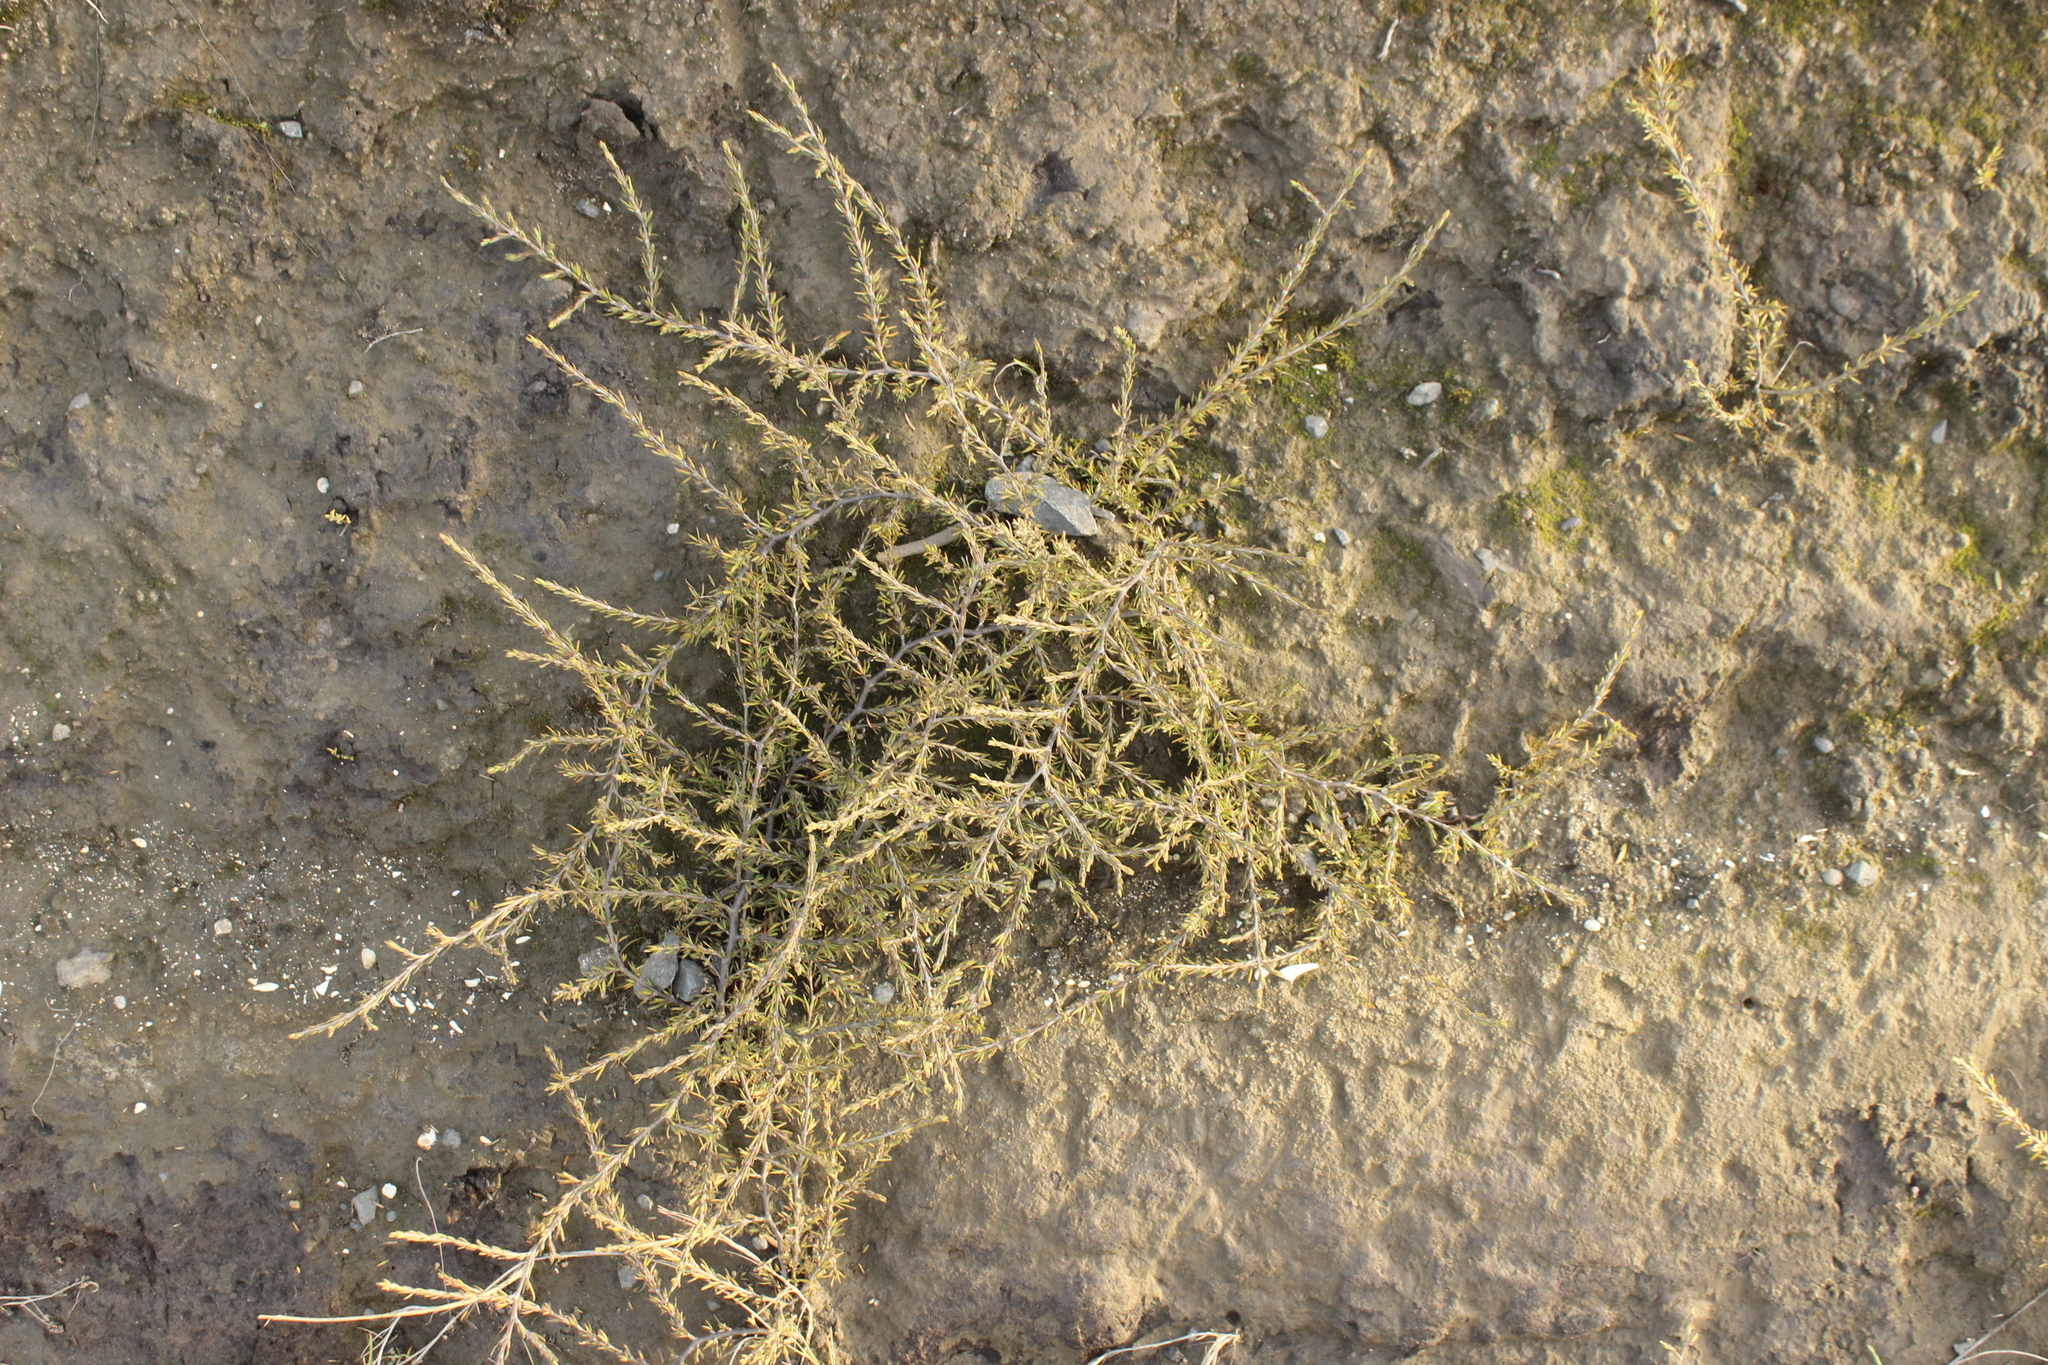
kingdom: Plantae
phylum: Tracheophyta
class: Magnoliopsida
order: Gentianales
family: Rubiaceae
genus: Coprosma
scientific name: Coprosma acerosa
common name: Sand coprosma
